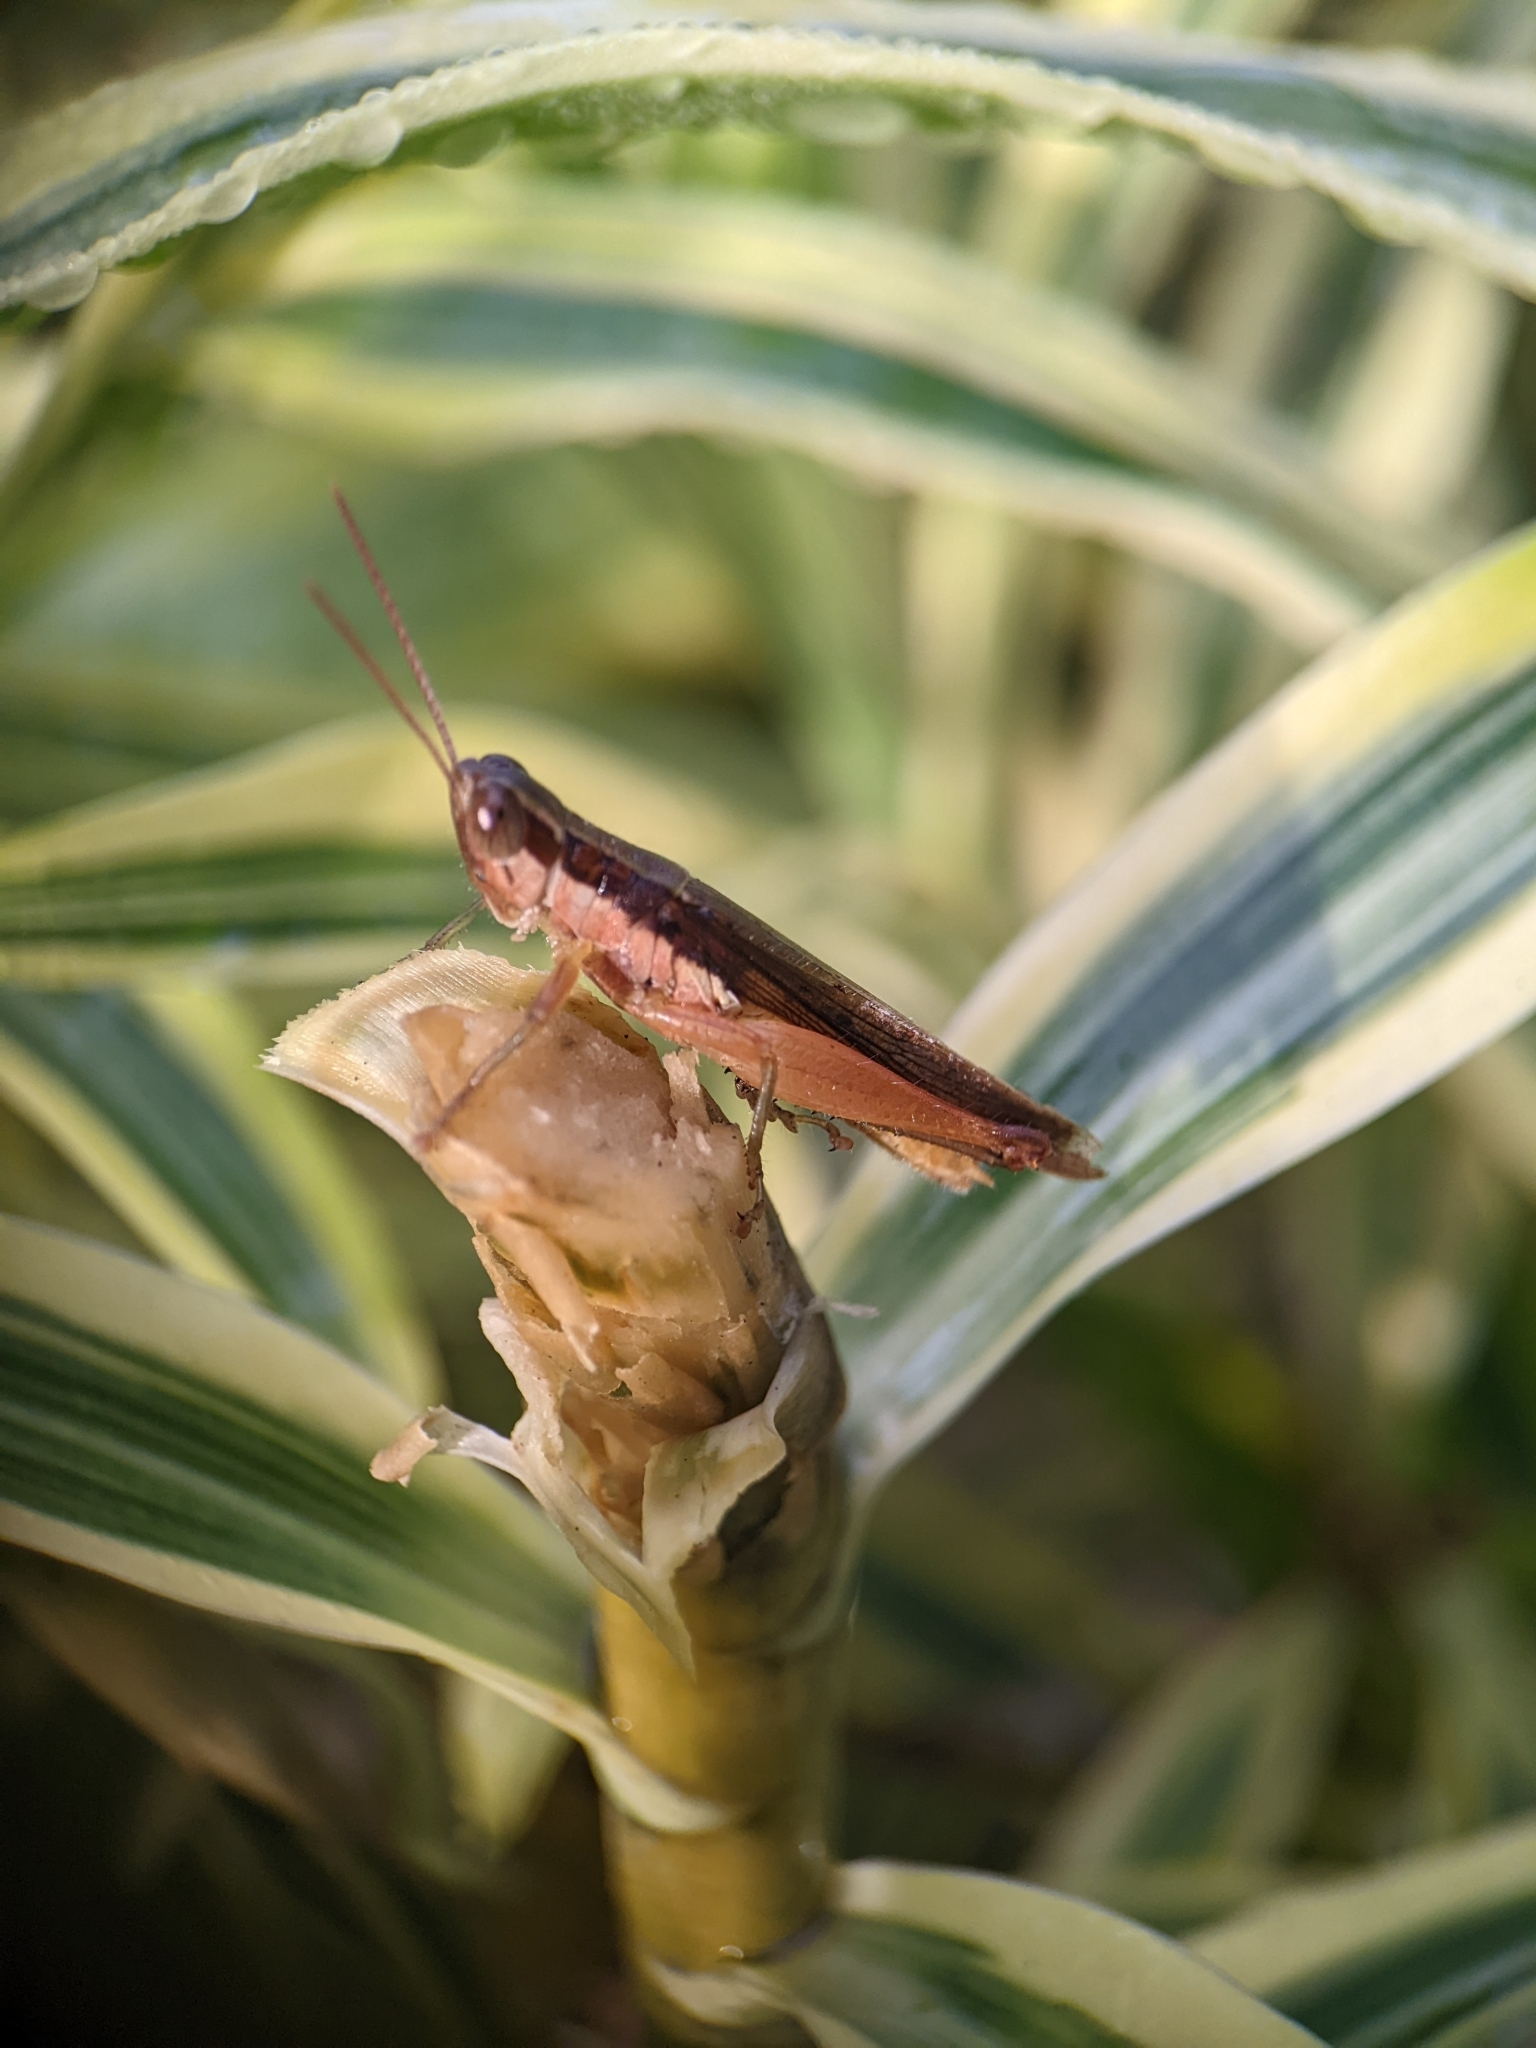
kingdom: Animalia
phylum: Arthropoda
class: Insecta
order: Orthoptera
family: Acrididae
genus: Oxya
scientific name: Oxya intricata
